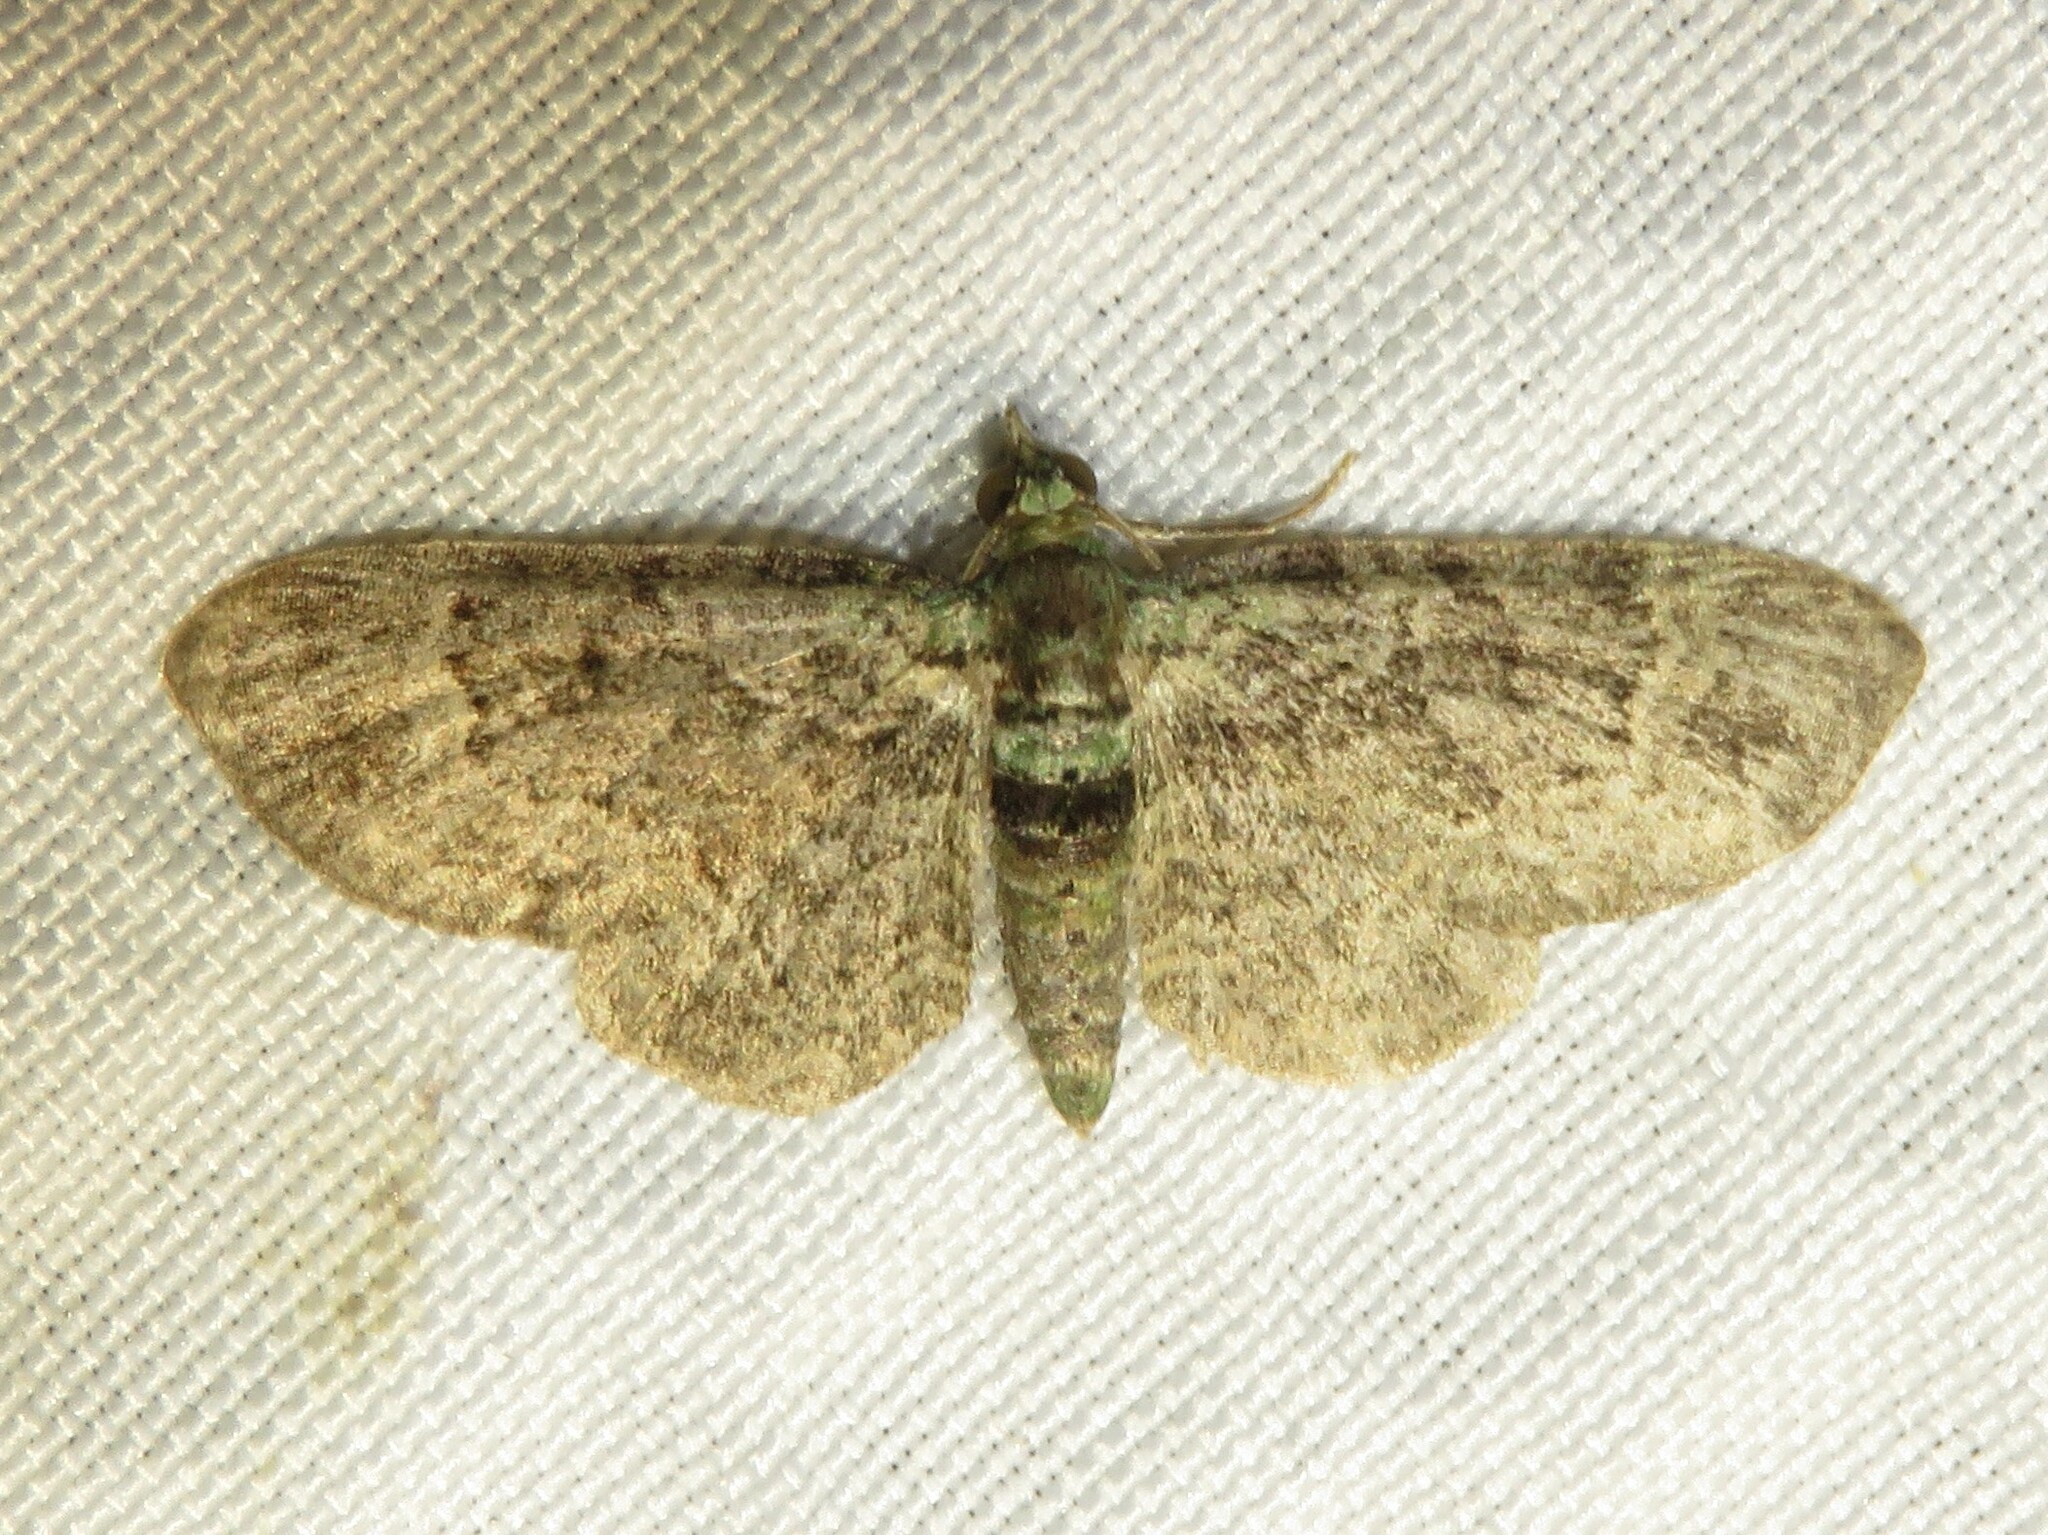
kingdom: Animalia
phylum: Arthropoda
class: Insecta
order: Lepidoptera
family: Geometridae
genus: Pasiphila
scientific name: Pasiphila rectangulata
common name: Green pug
